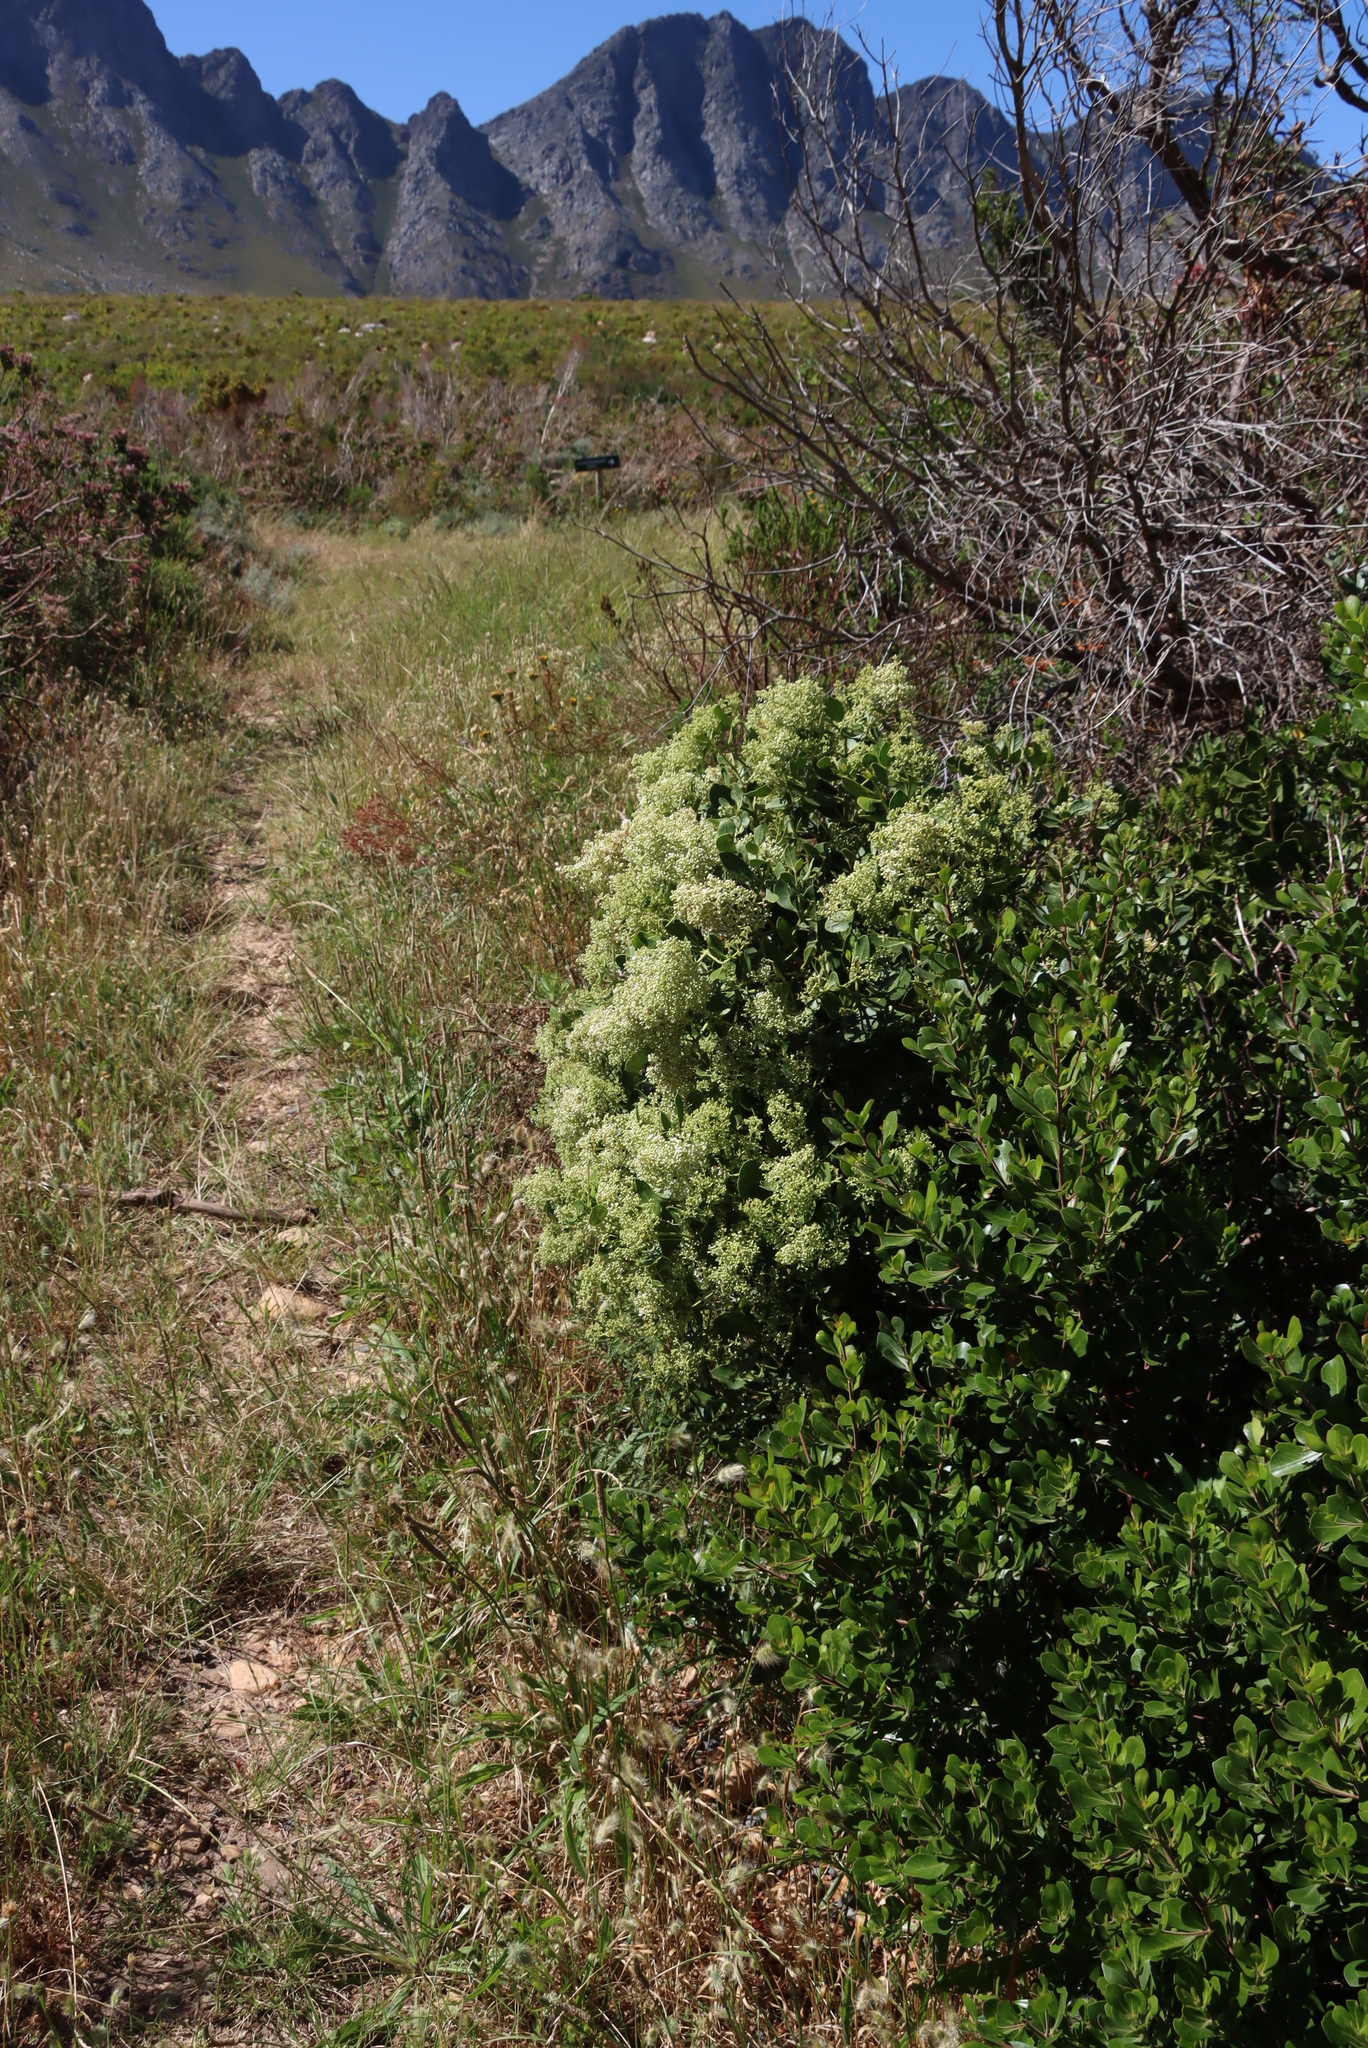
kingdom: Plantae
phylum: Tracheophyta
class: Magnoliopsida
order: Sapindales
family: Anacardiaceae
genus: Searsia
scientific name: Searsia tomentosa
